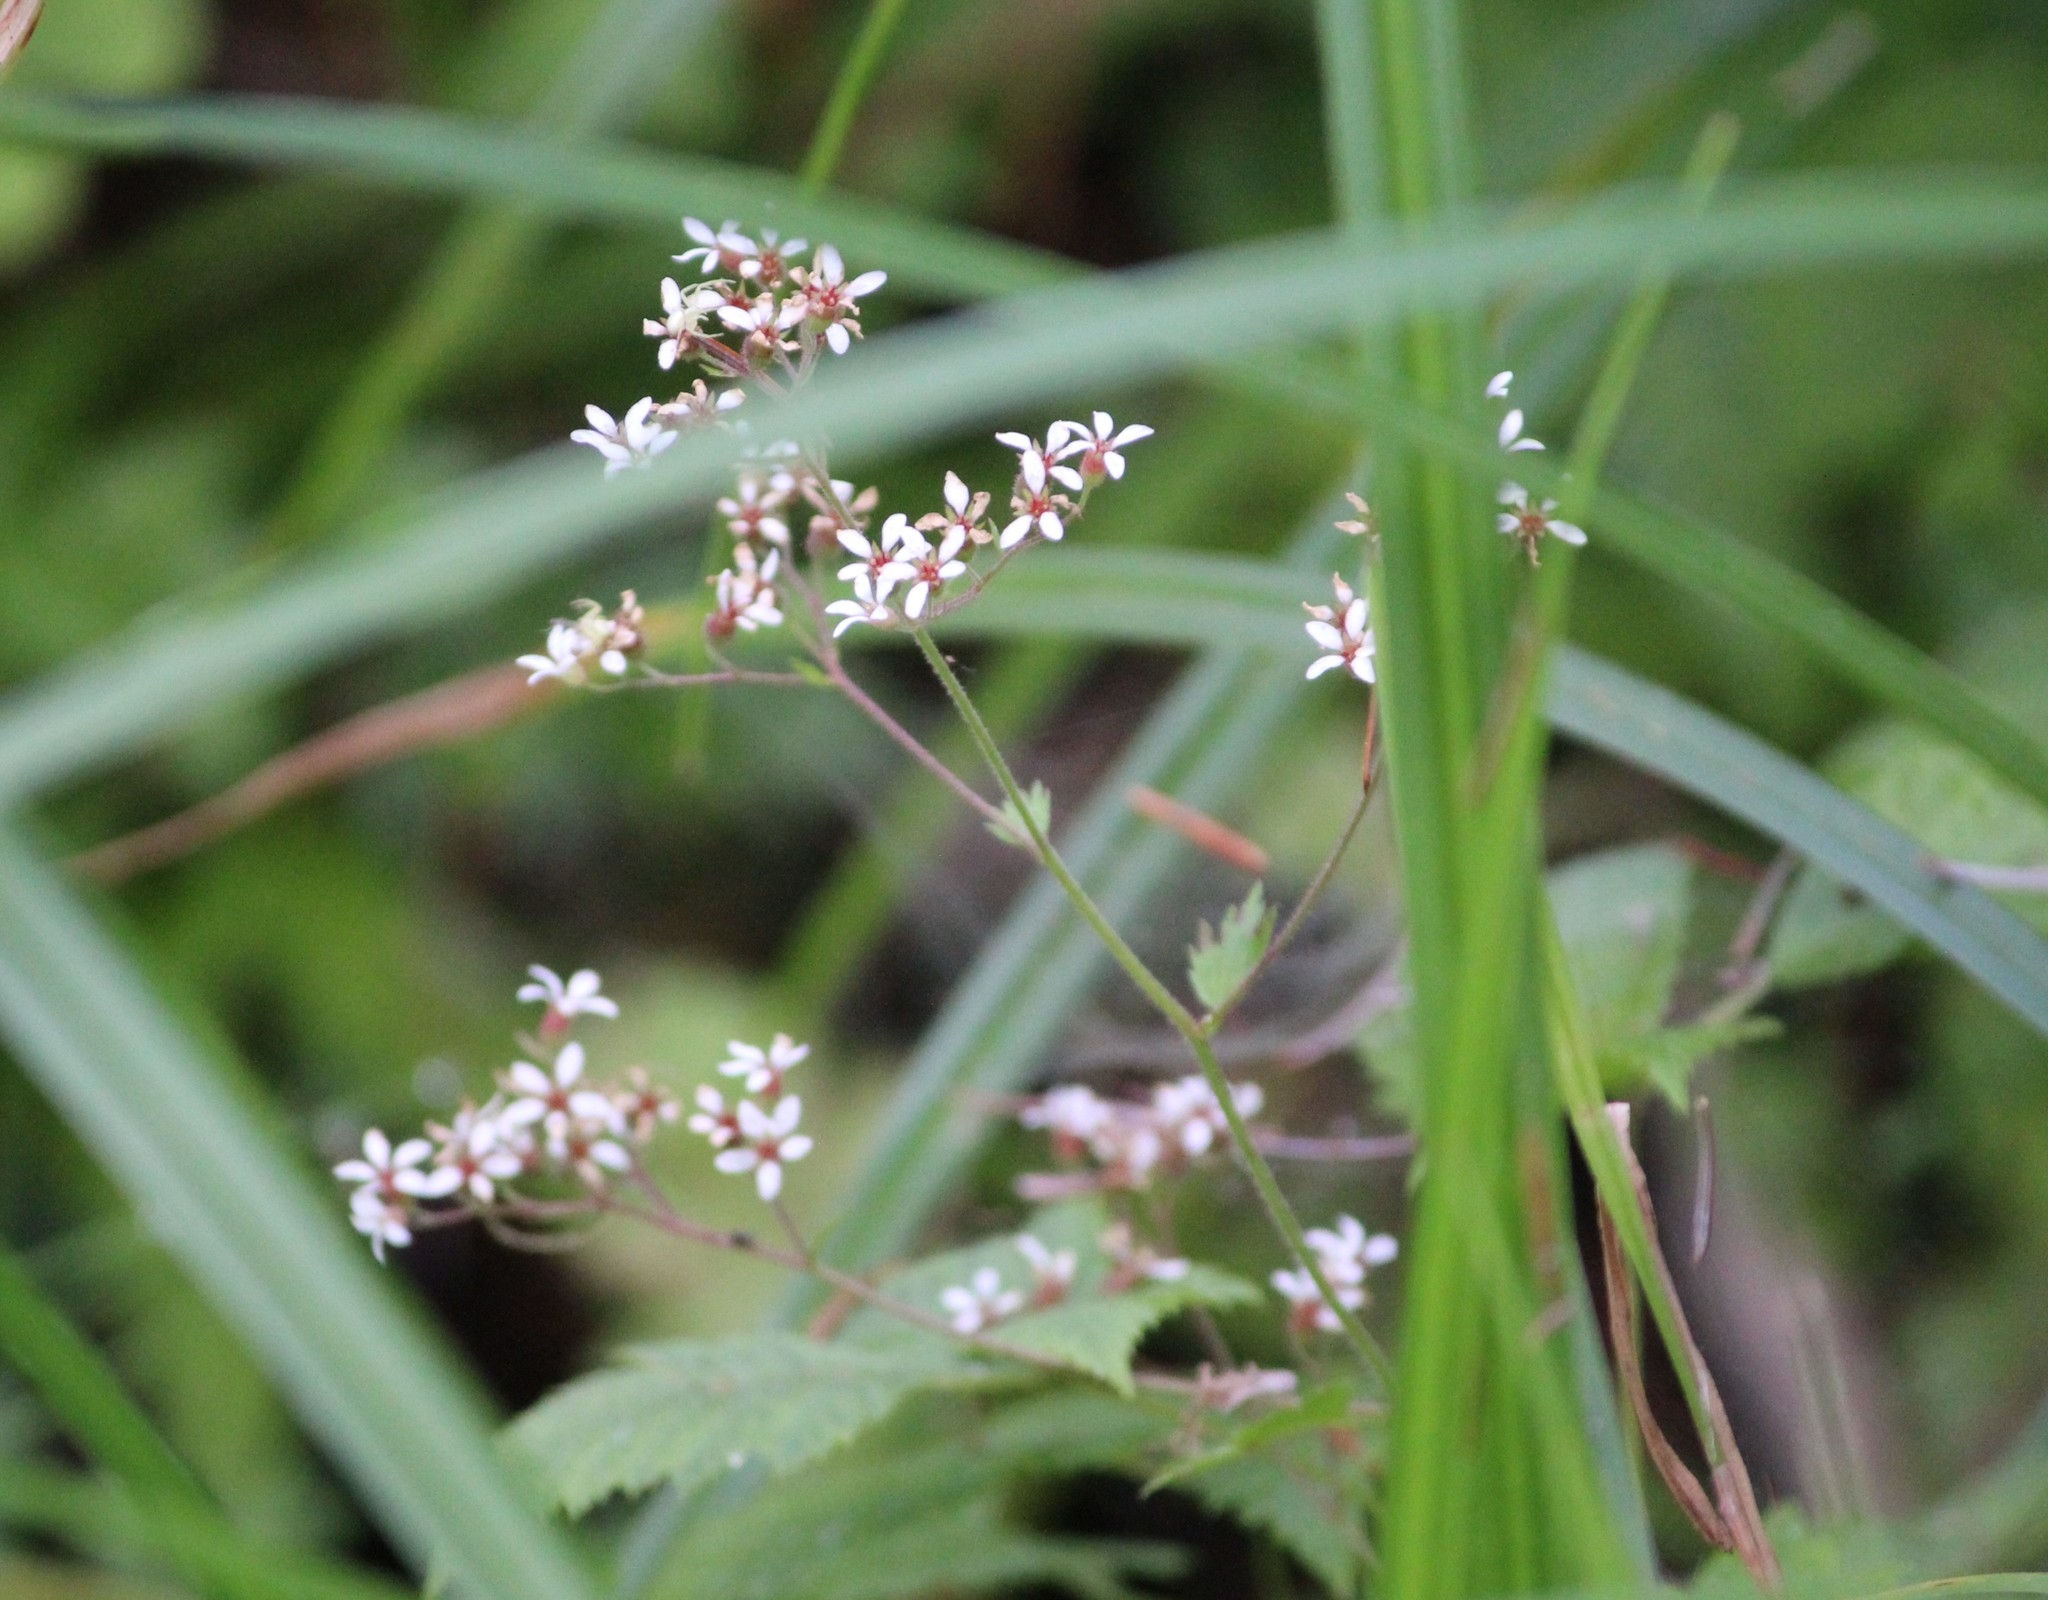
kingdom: Plantae
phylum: Tracheophyta
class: Magnoliopsida
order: Saxifragales
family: Saxifragaceae
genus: Boykinia
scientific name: Boykinia occidentalis
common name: Coast boykinia
